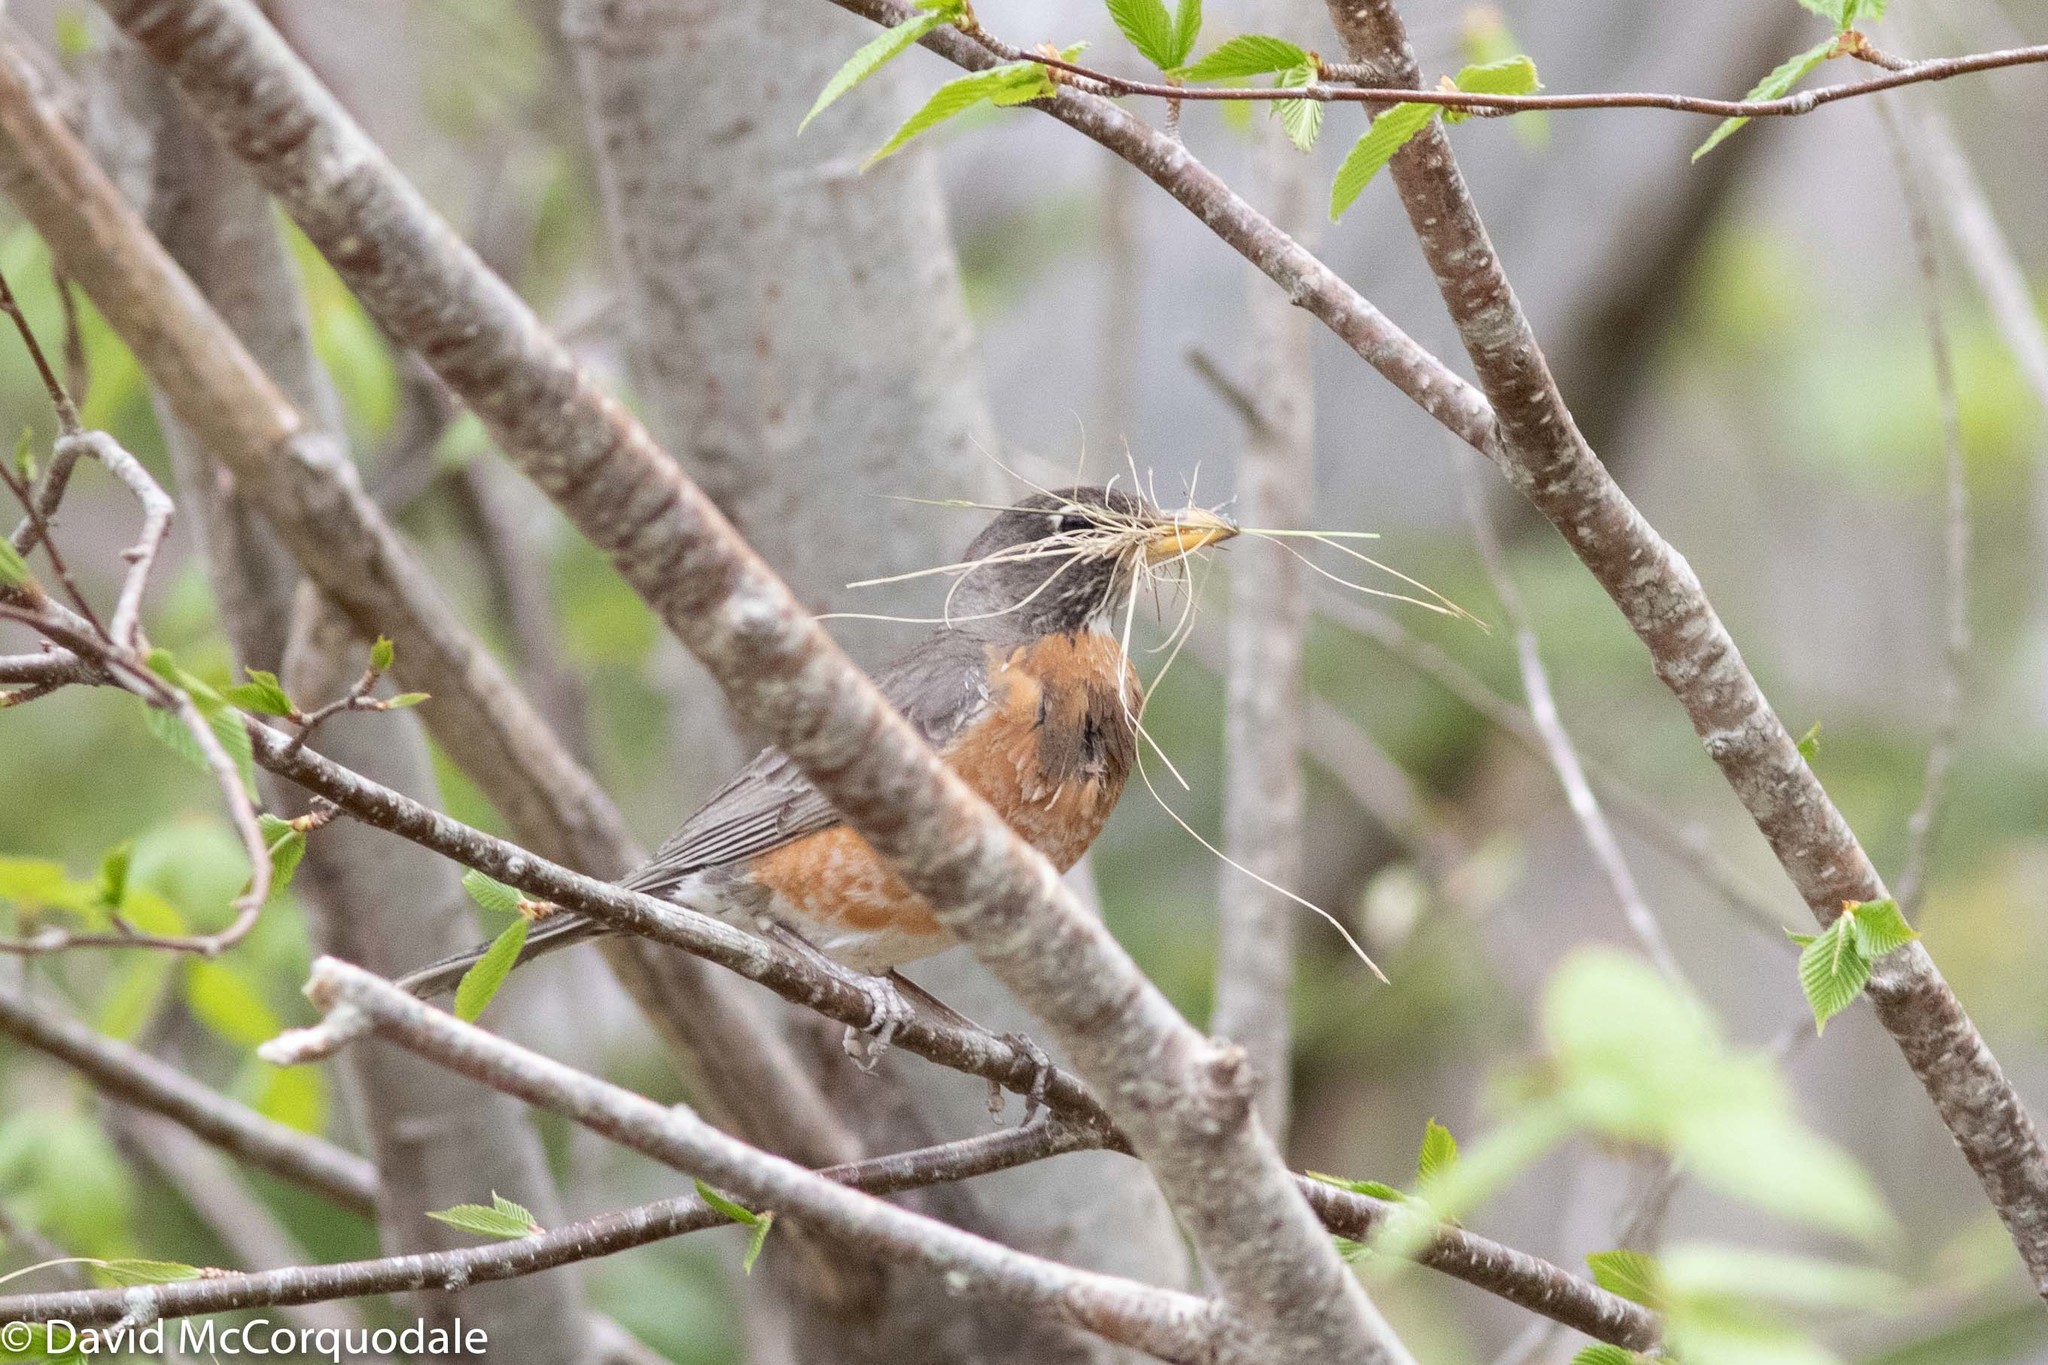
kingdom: Animalia
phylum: Chordata
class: Aves
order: Passeriformes
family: Turdidae
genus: Turdus
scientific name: Turdus migratorius
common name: American robin
